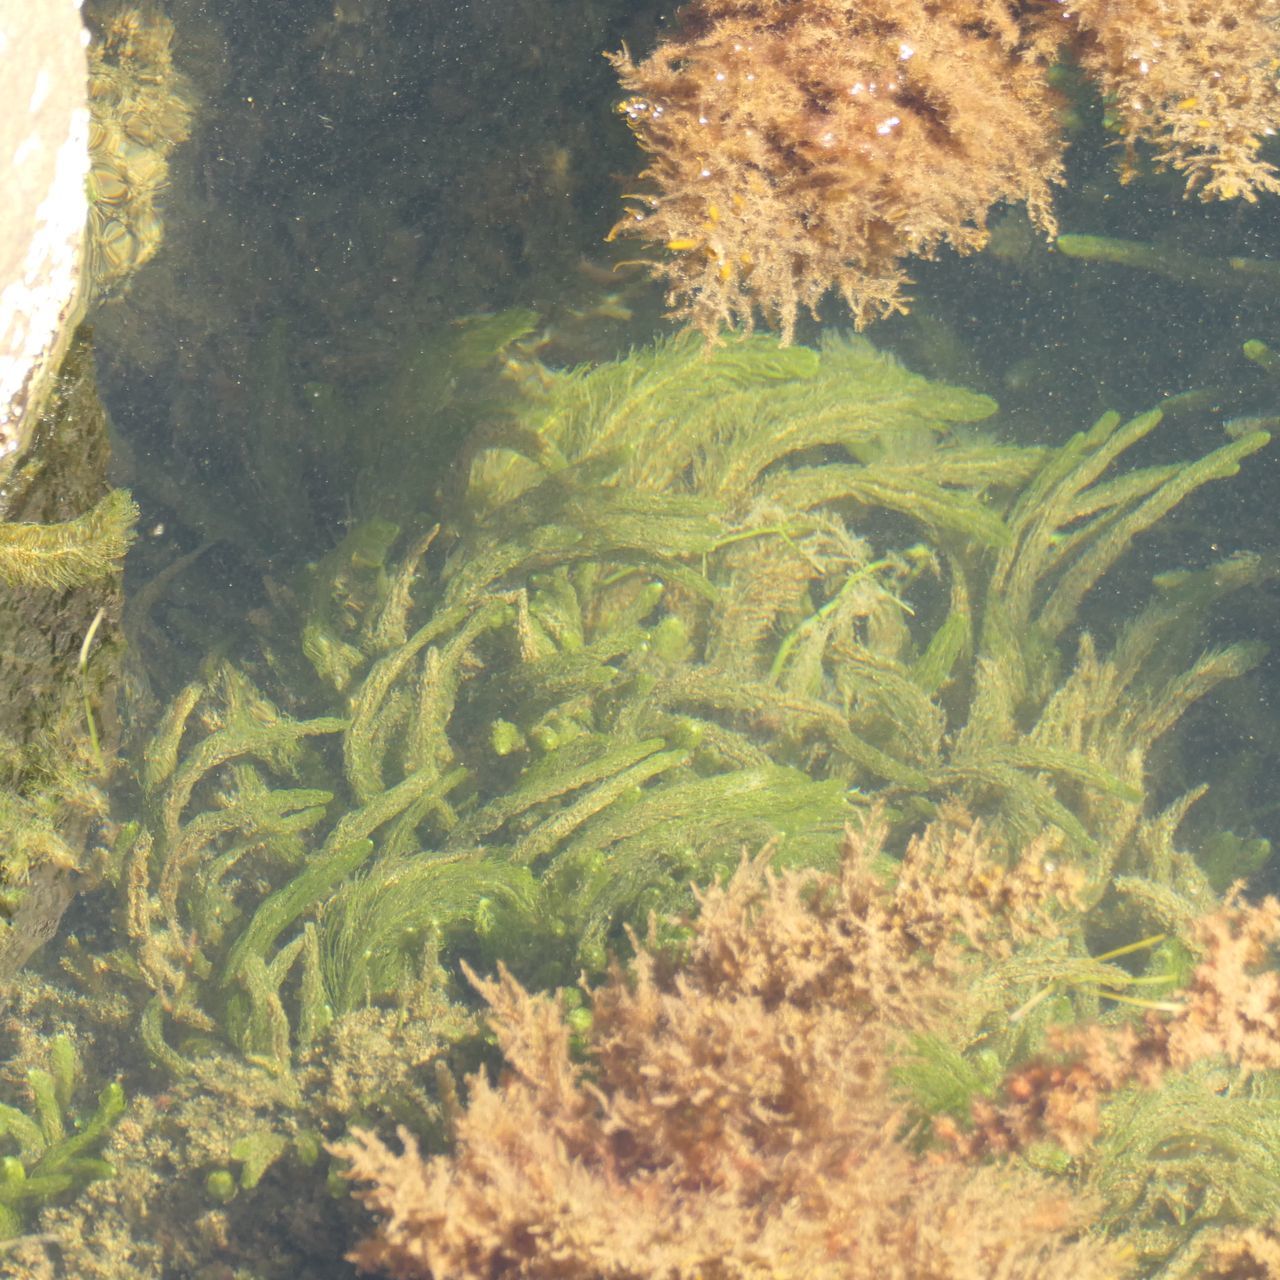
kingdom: Plantae
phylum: Chlorophyta
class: Ulvophyceae
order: Bryopsidales
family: Caulerpaceae
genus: Caulerpa
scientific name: Caulerpa longifolia
